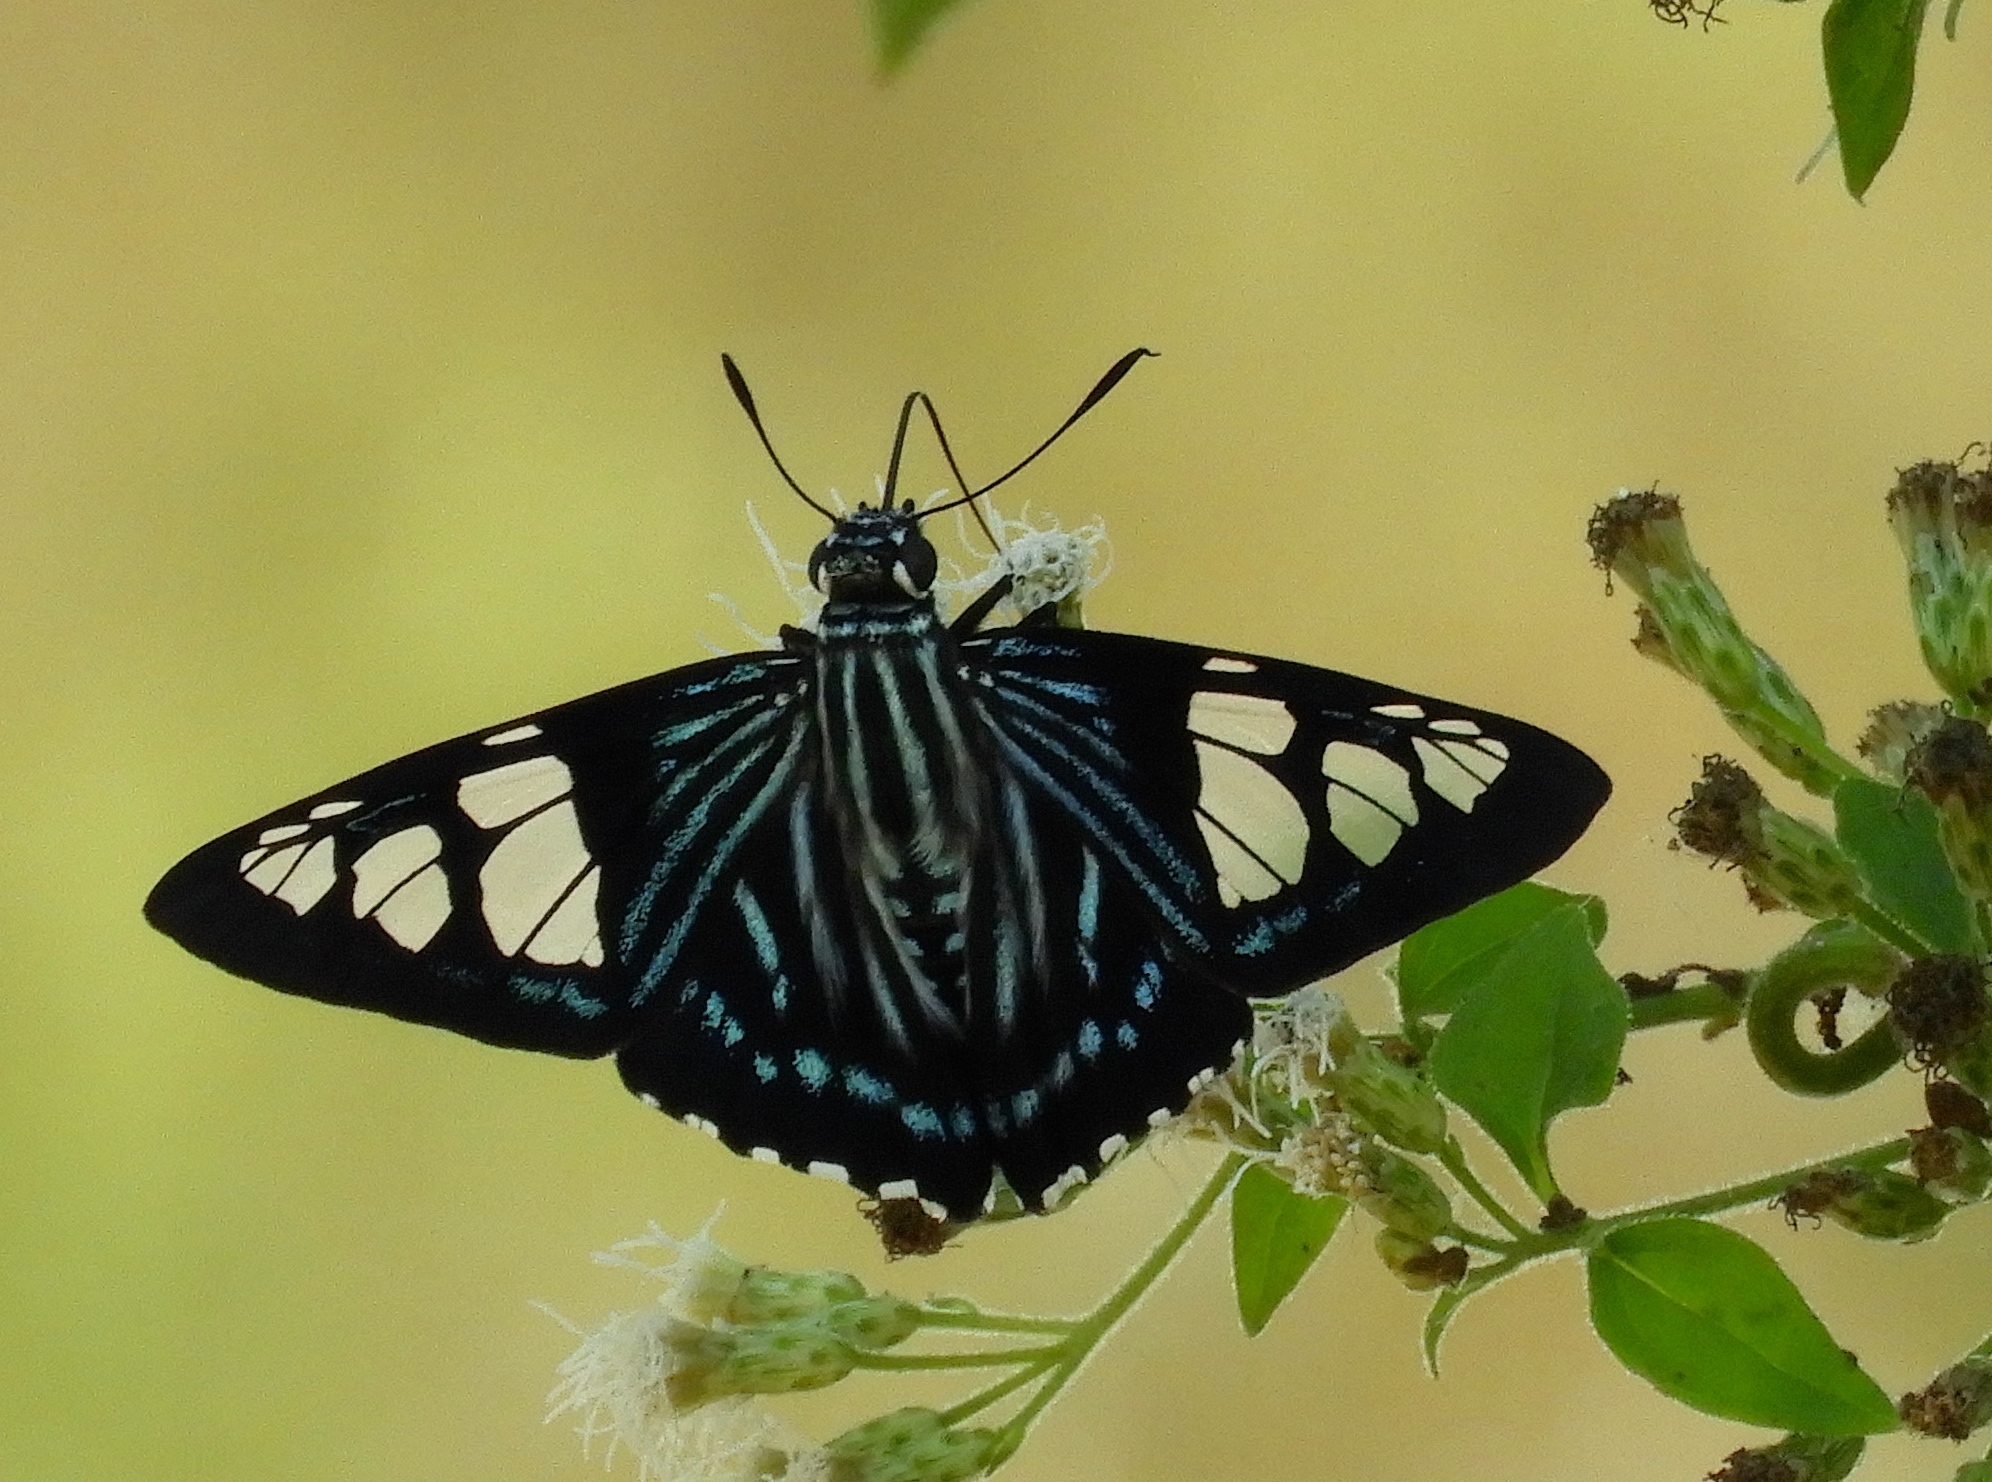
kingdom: Animalia
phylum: Arthropoda
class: Insecta
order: Lepidoptera
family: Hesperiidae
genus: Phocides
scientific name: Phocides pigmalion
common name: Mangrove skipper
